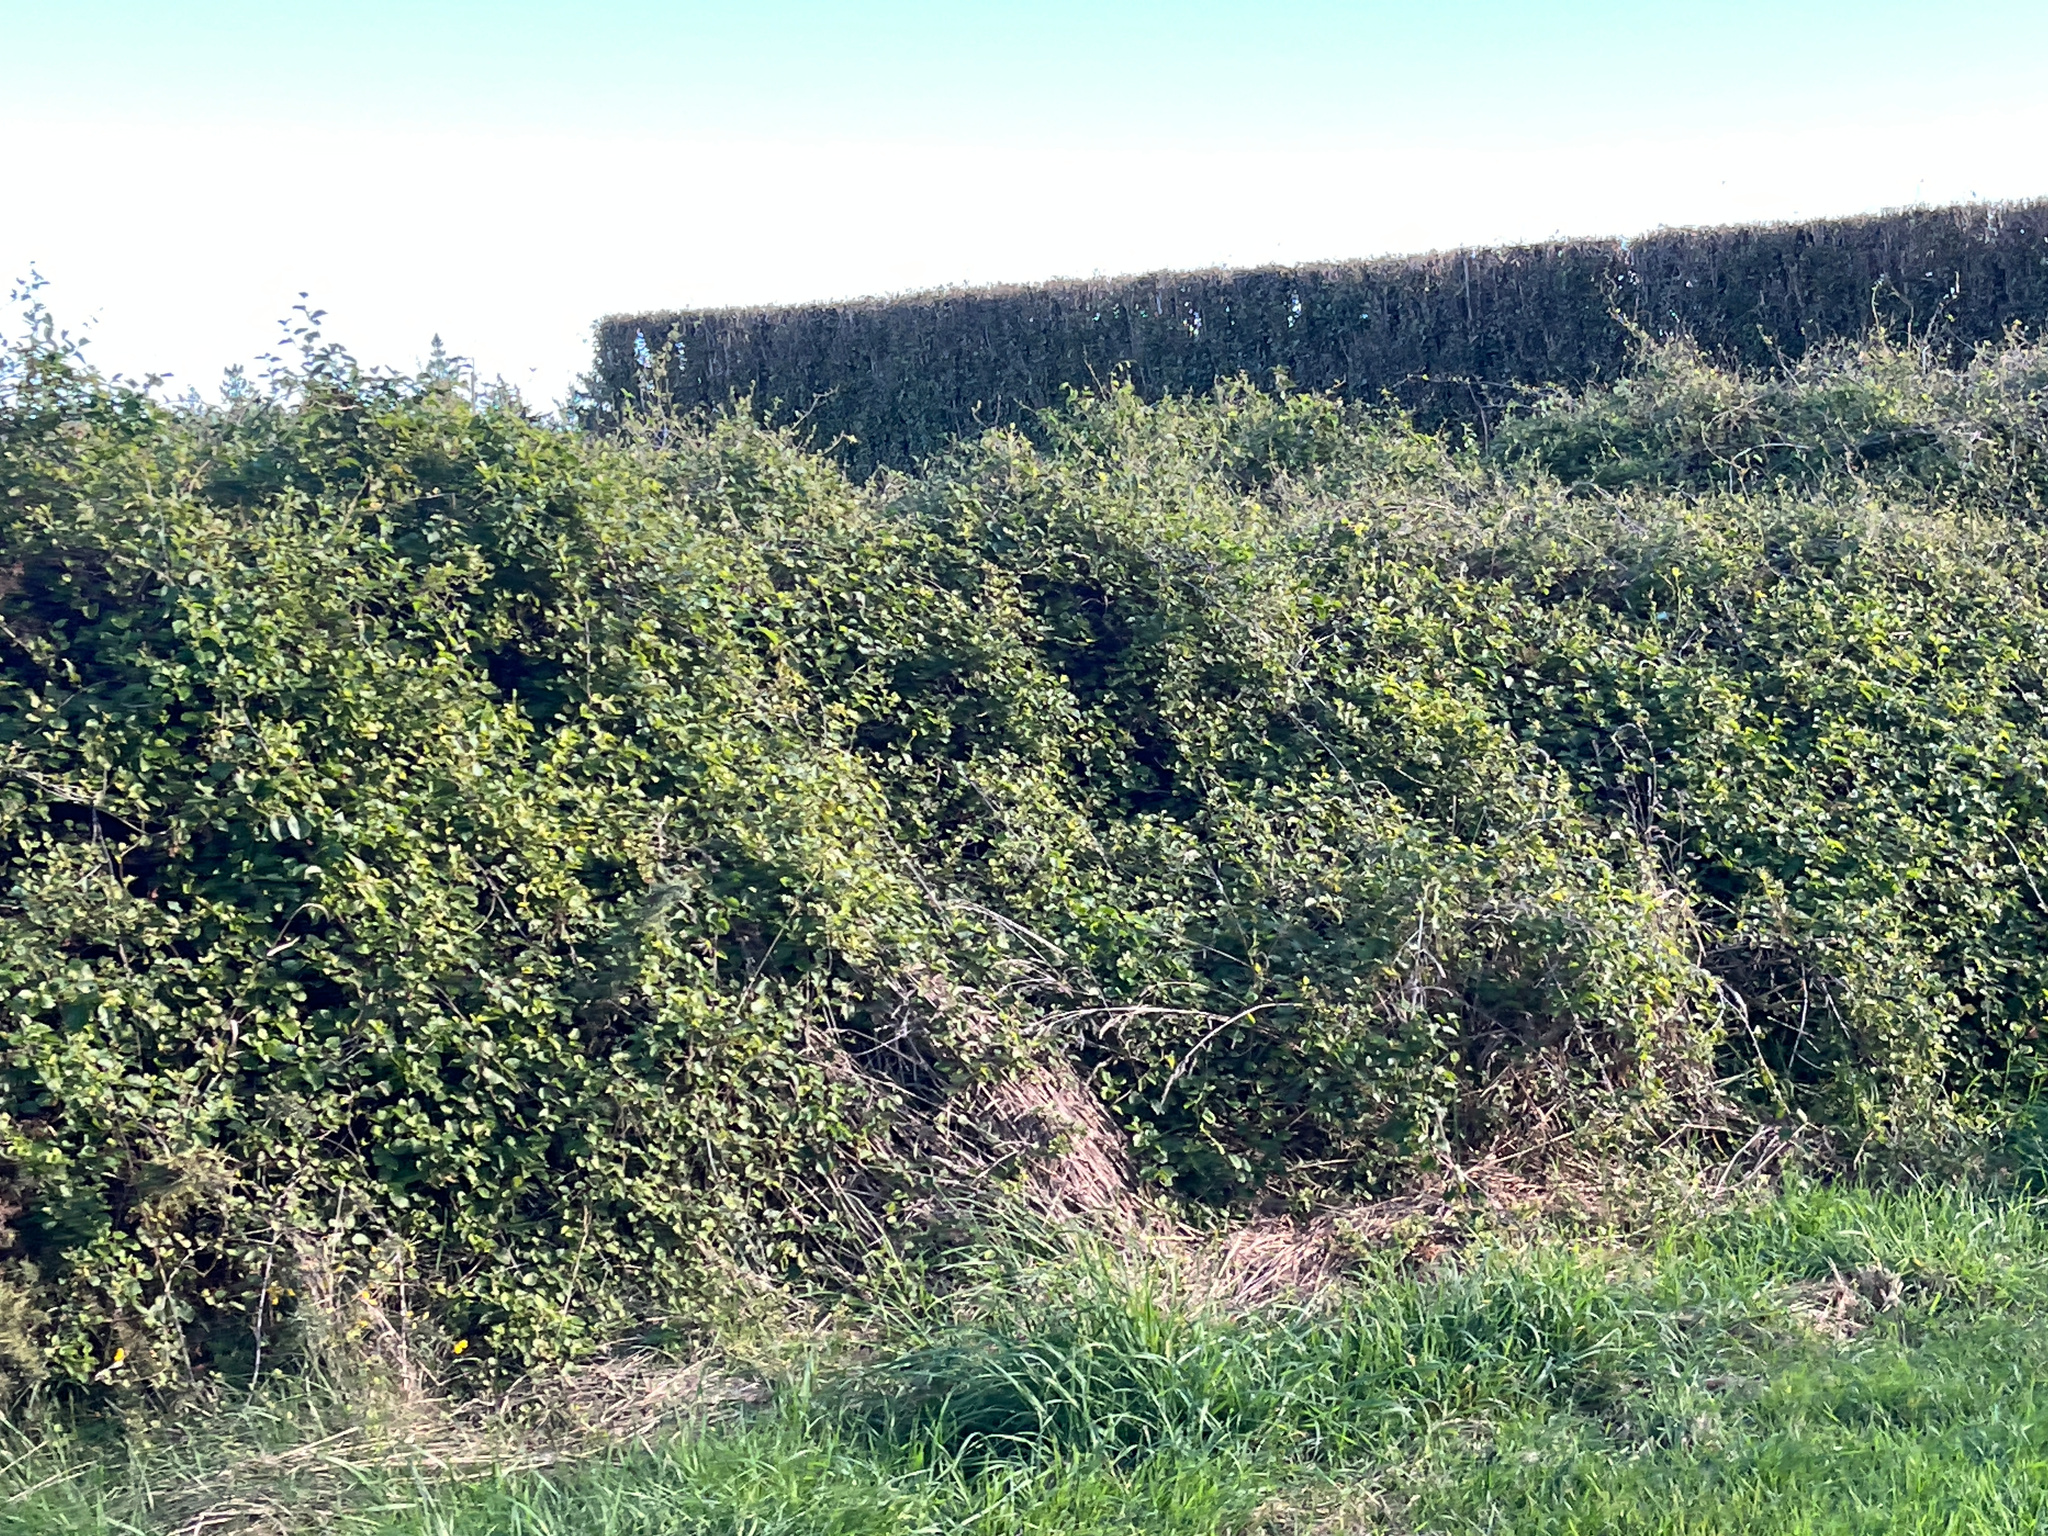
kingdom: Plantae
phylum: Tracheophyta
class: Magnoliopsida
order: Caryophyllales
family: Polygonaceae
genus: Muehlenbeckia
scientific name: Muehlenbeckia australis
